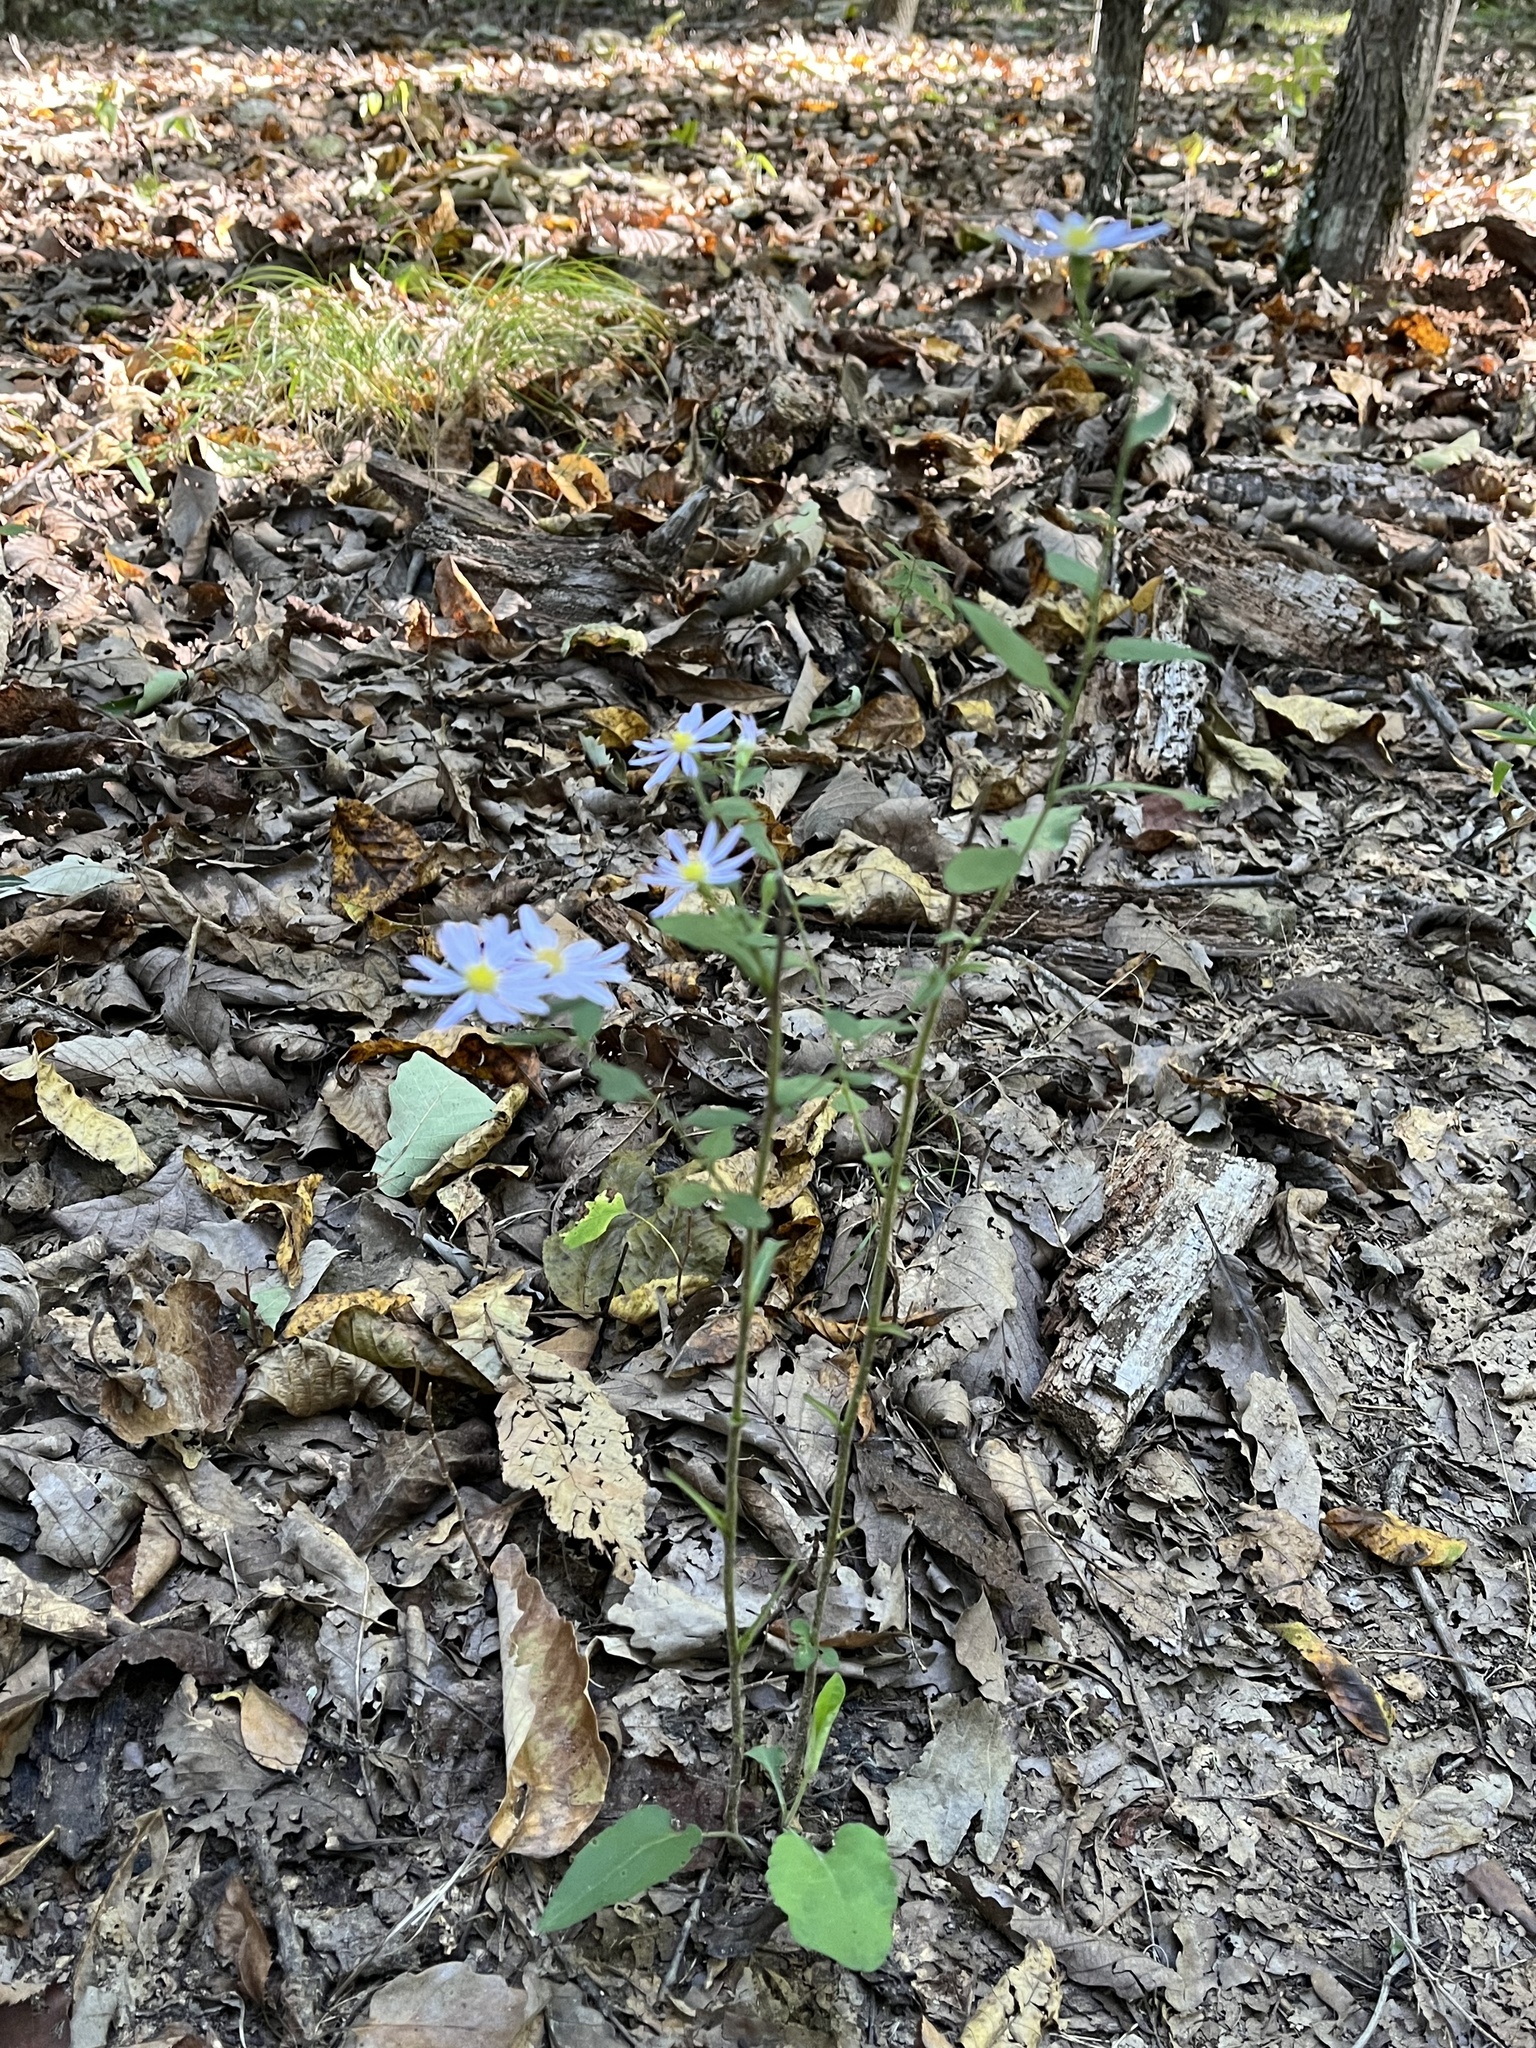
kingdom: Plantae
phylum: Tracheophyta
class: Magnoliopsida
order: Asterales
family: Asteraceae
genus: Symphyotrichum
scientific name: Symphyotrichum undulatum
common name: Clasping heart-leaf aster
